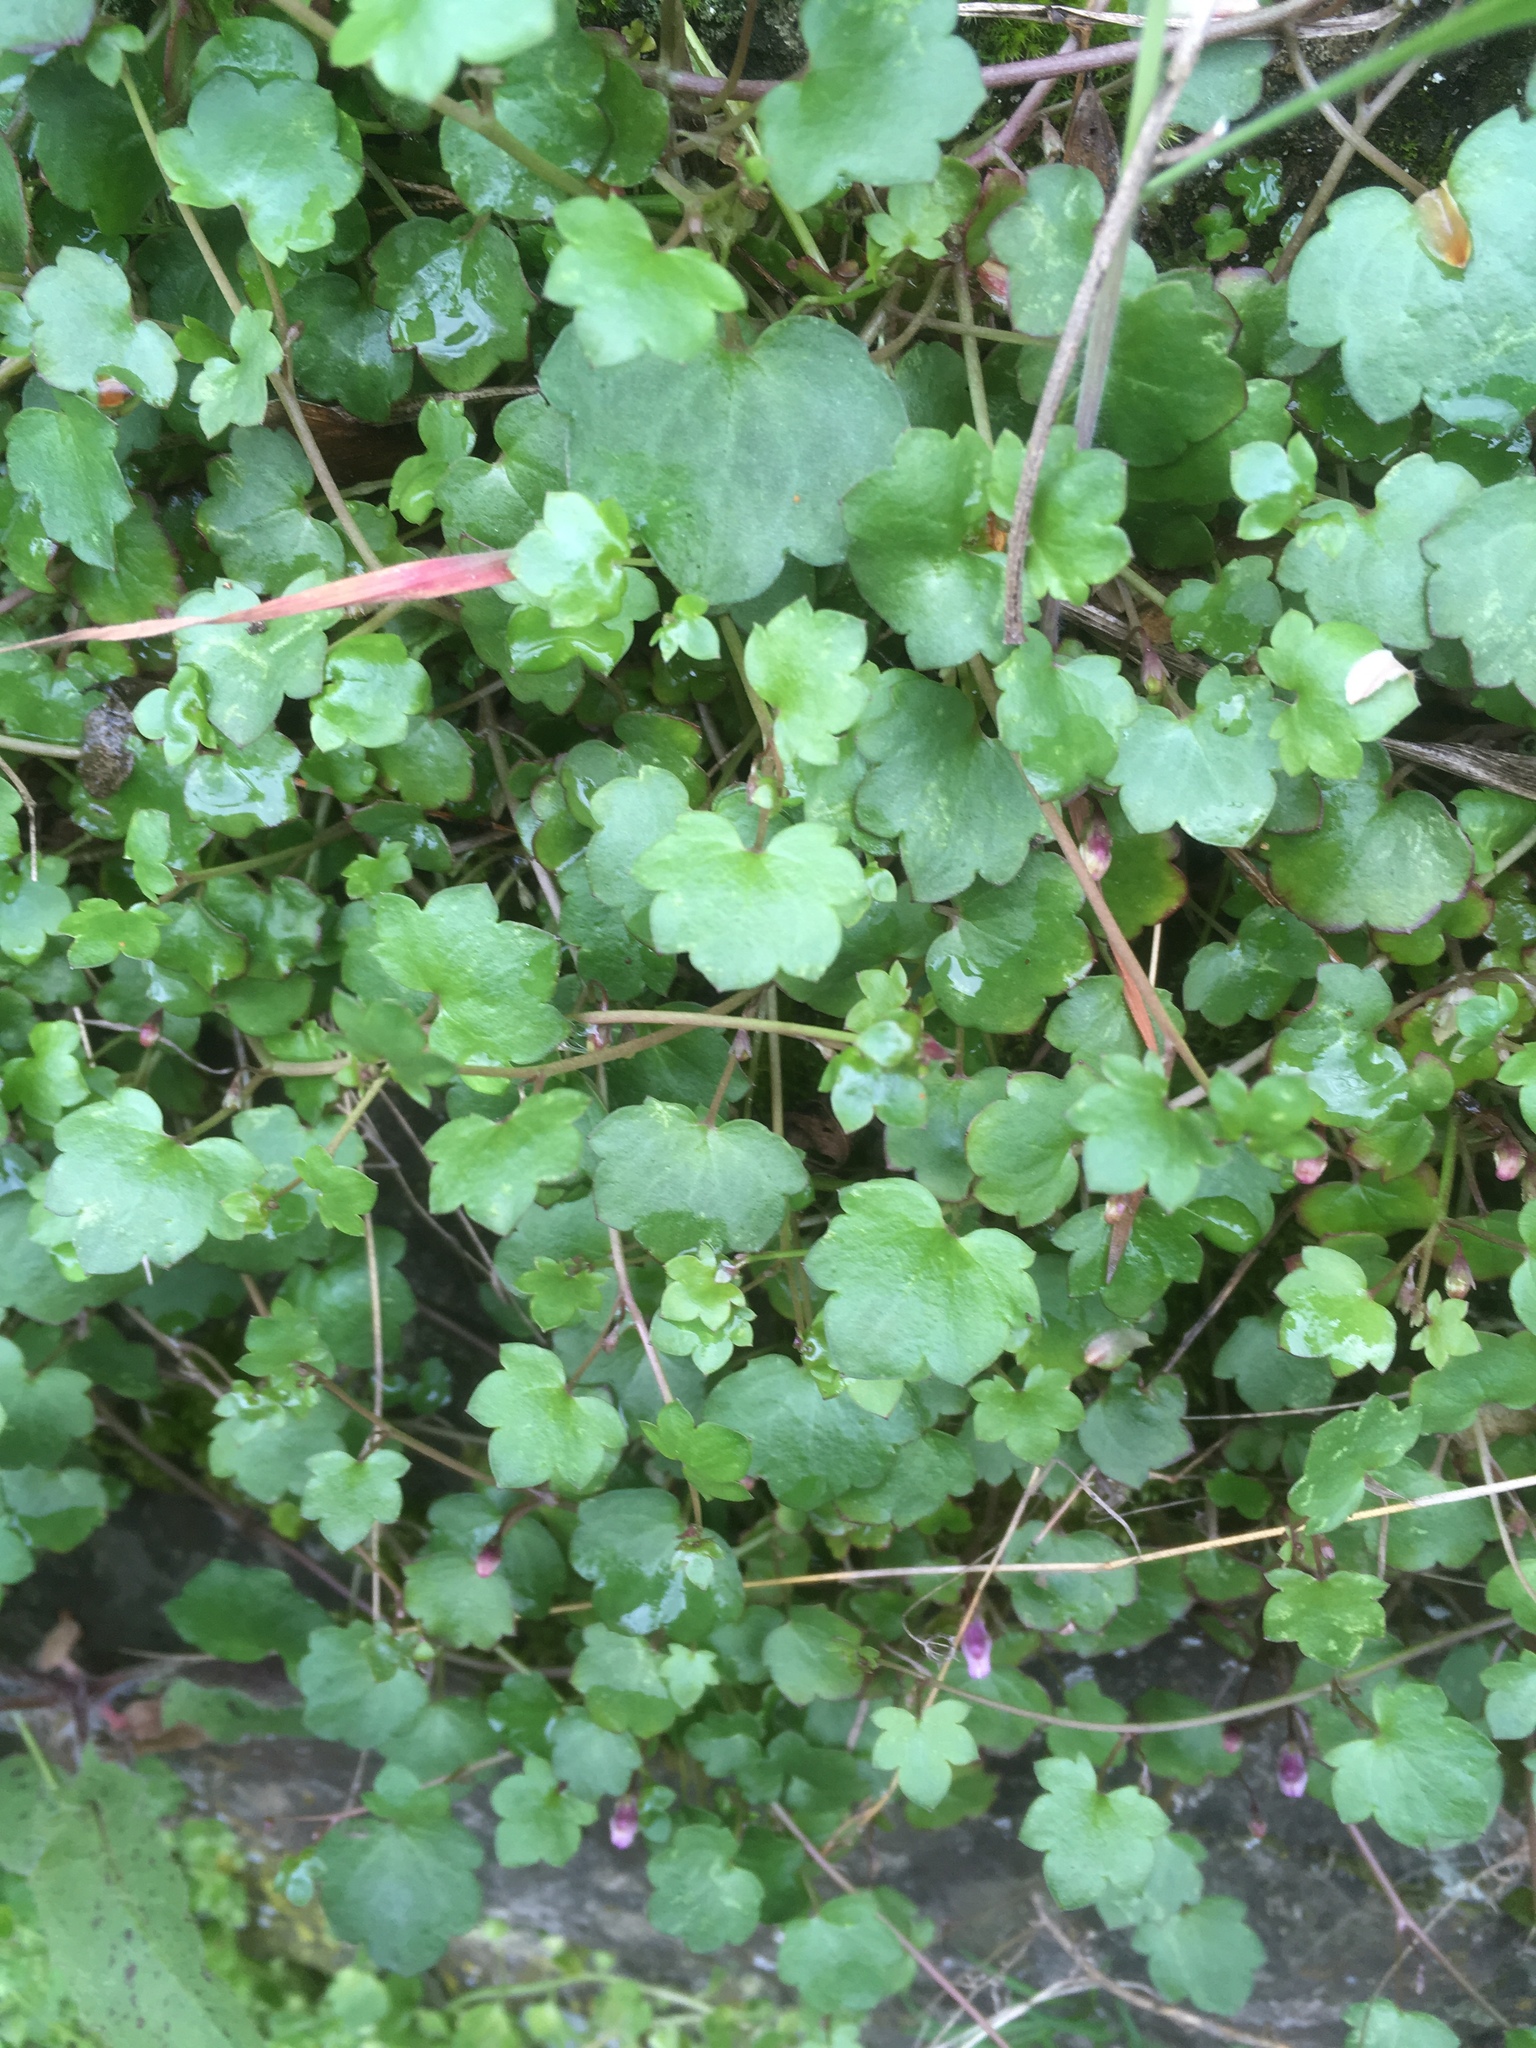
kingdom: Plantae
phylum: Tracheophyta
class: Magnoliopsida
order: Lamiales
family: Plantaginaceae
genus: Cymbalaria
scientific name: Cymbalaria muralis
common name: Ivy-leaved toadflax
